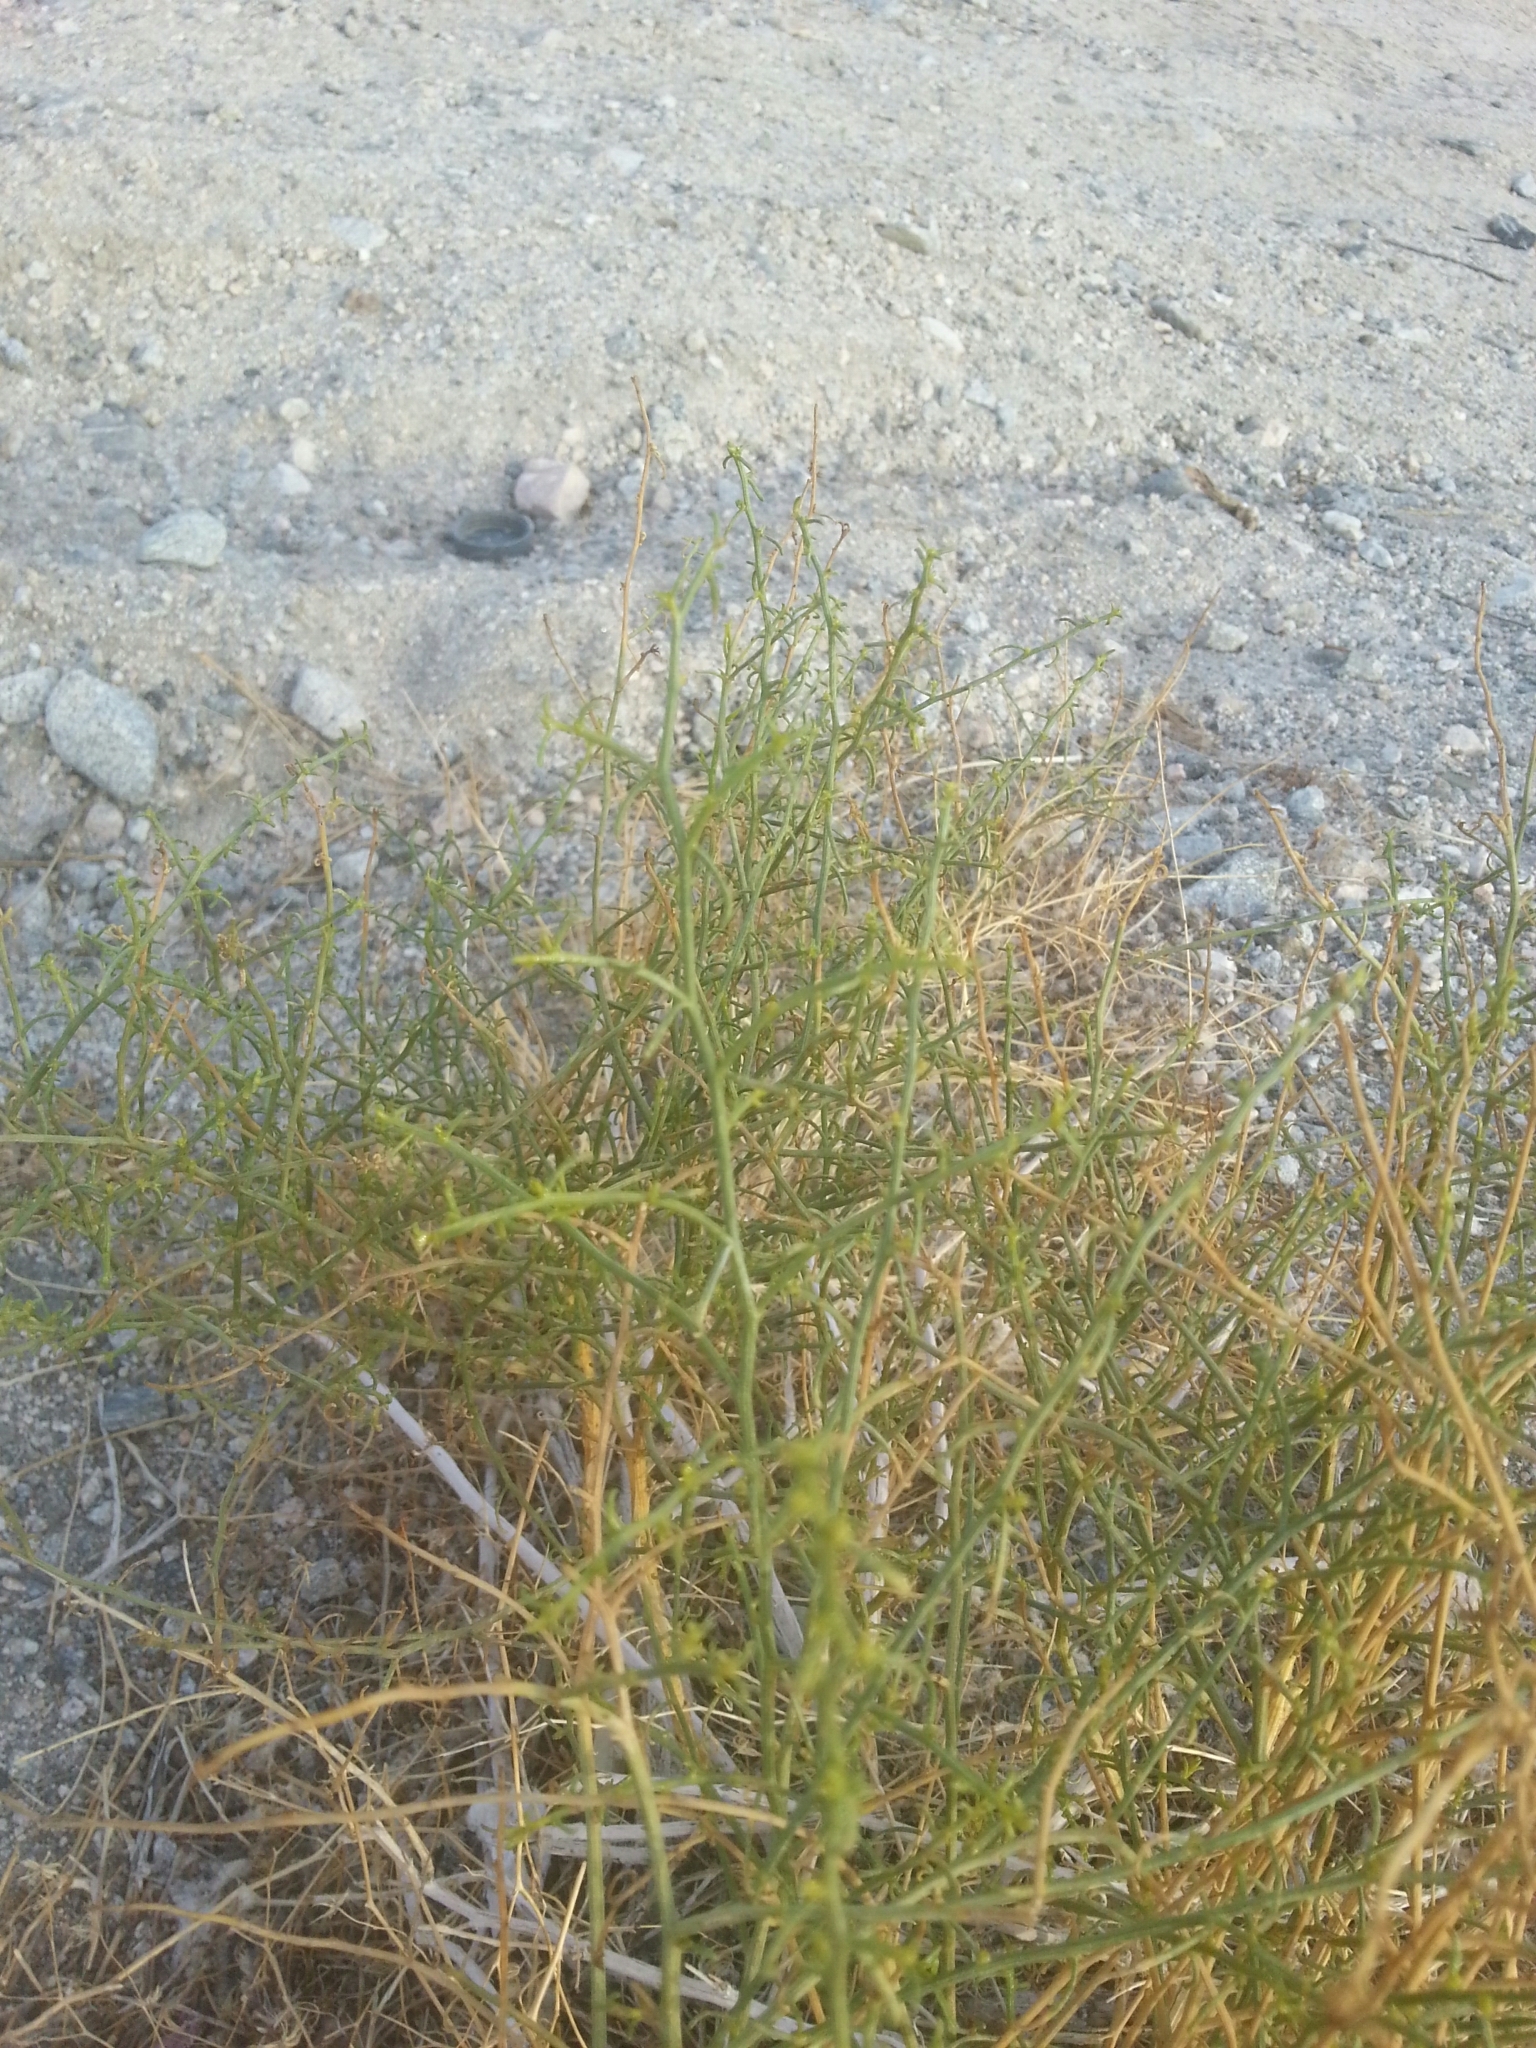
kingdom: Plantae
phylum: Tracheophyta
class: Magnoliopsida
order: Asterales
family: Asteraceae
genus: Ambrosia
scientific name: Ambrosia salsola
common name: Burrobrush
